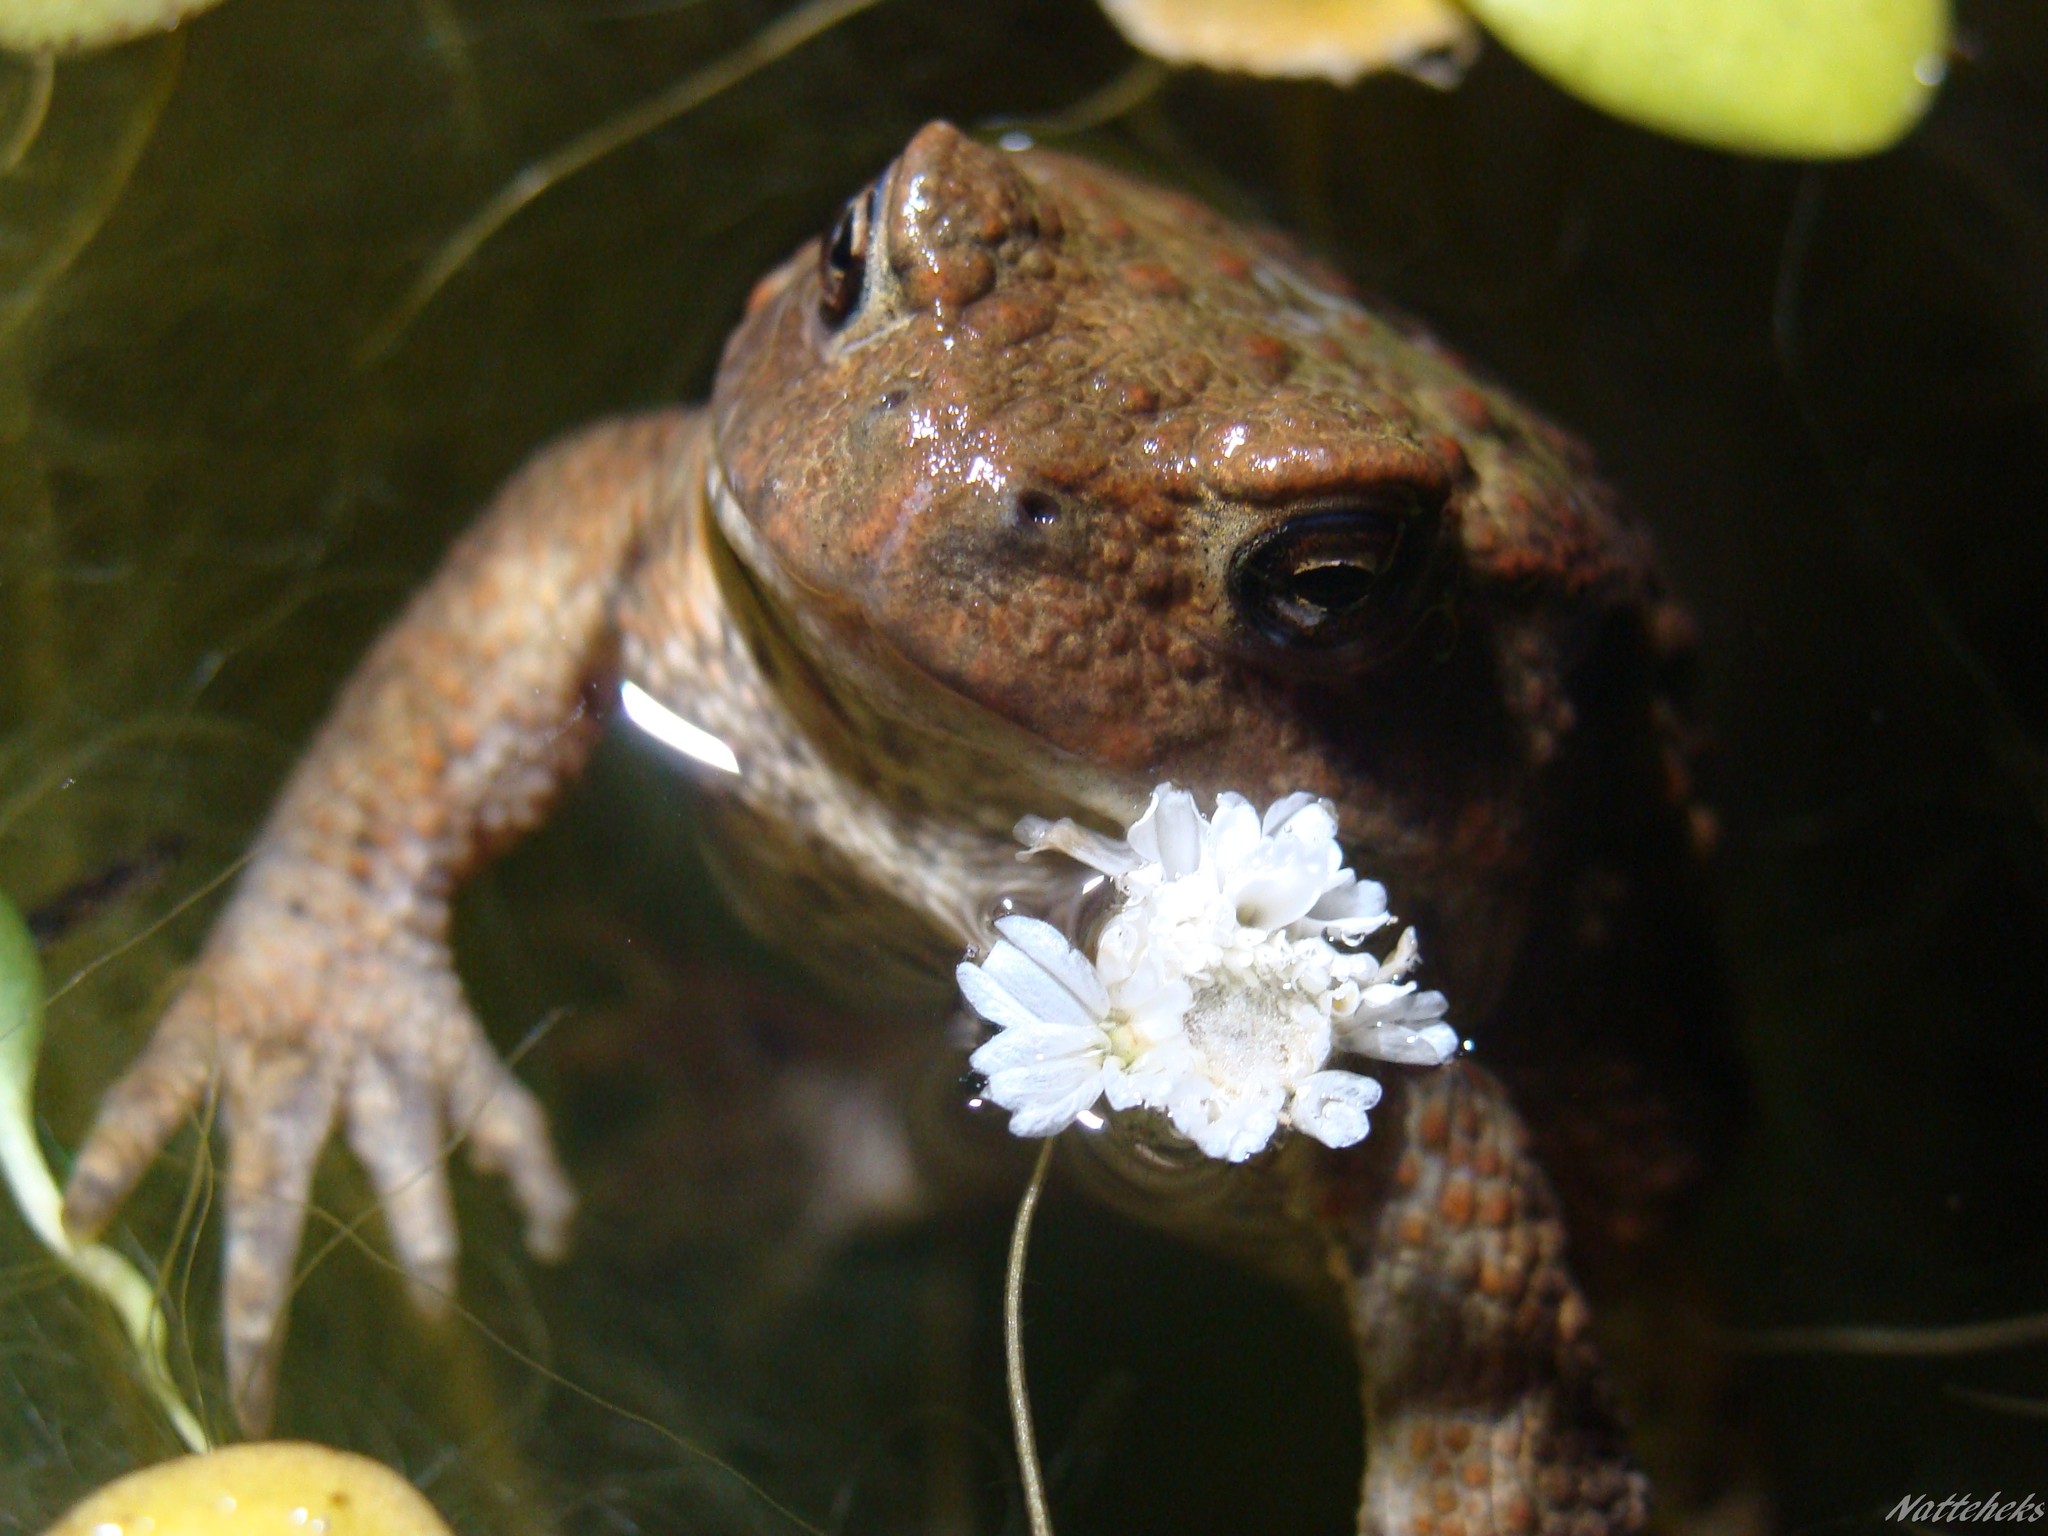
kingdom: Animalia
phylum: Chordata
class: Amphibia
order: Anura
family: Bufonidae
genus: Bufo
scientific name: Bufo bufo
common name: Common toad
